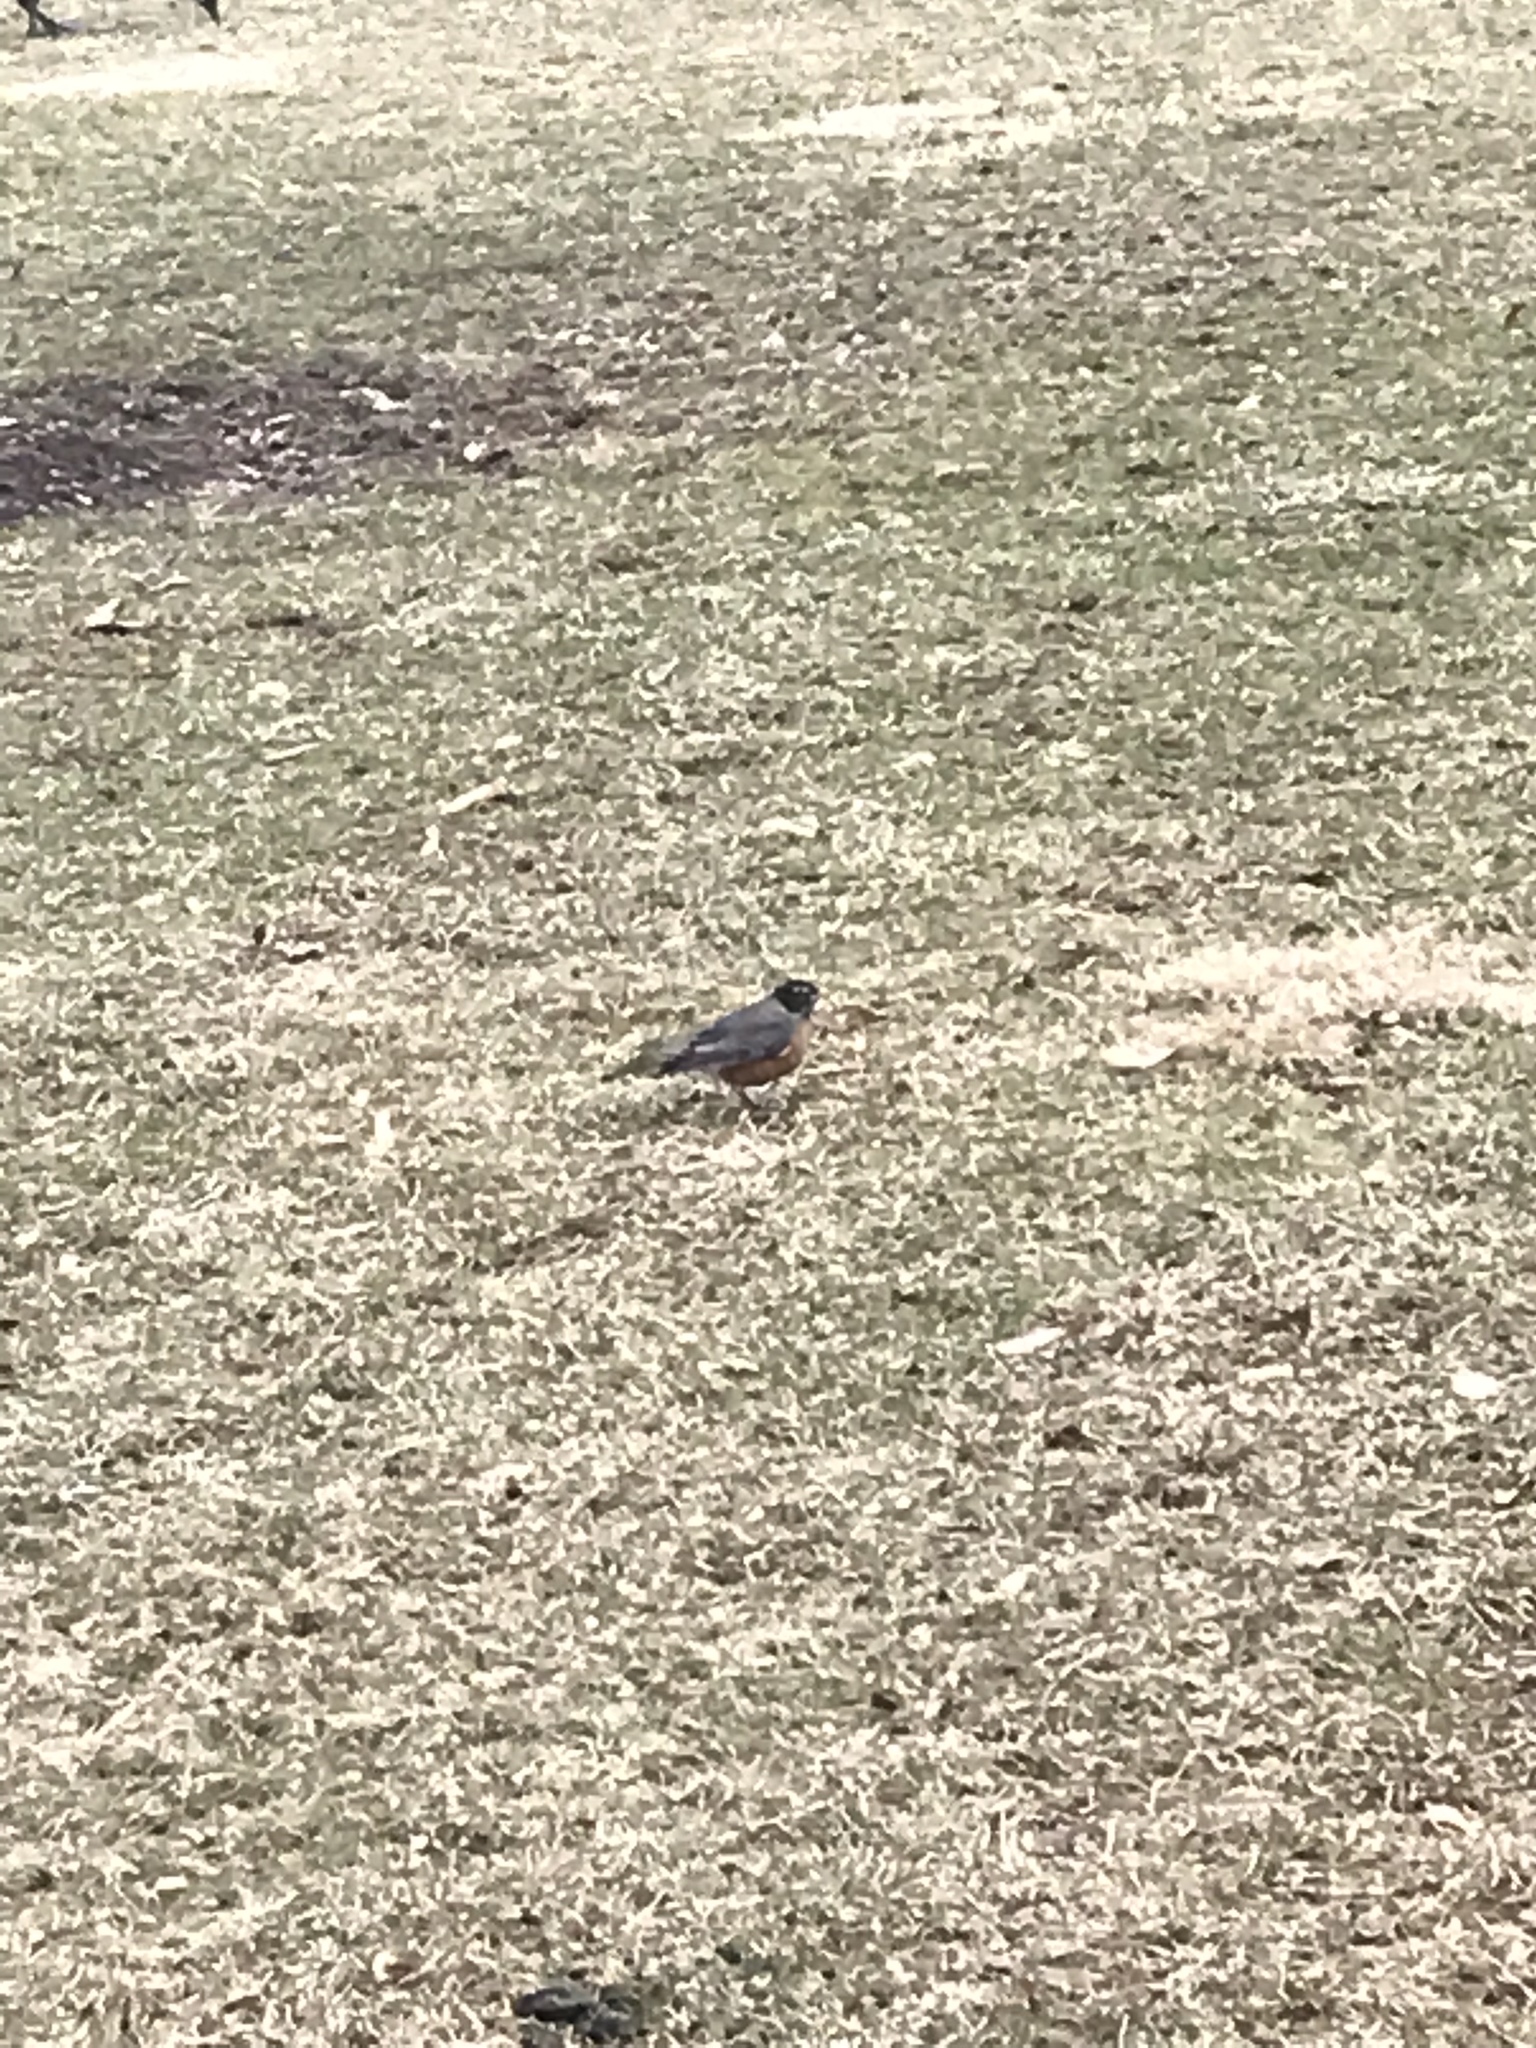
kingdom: Animalia
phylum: Chordata
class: Aves
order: Passeriformes
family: Turdidae
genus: Turdus
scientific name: Turdus migratorius
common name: American robin
